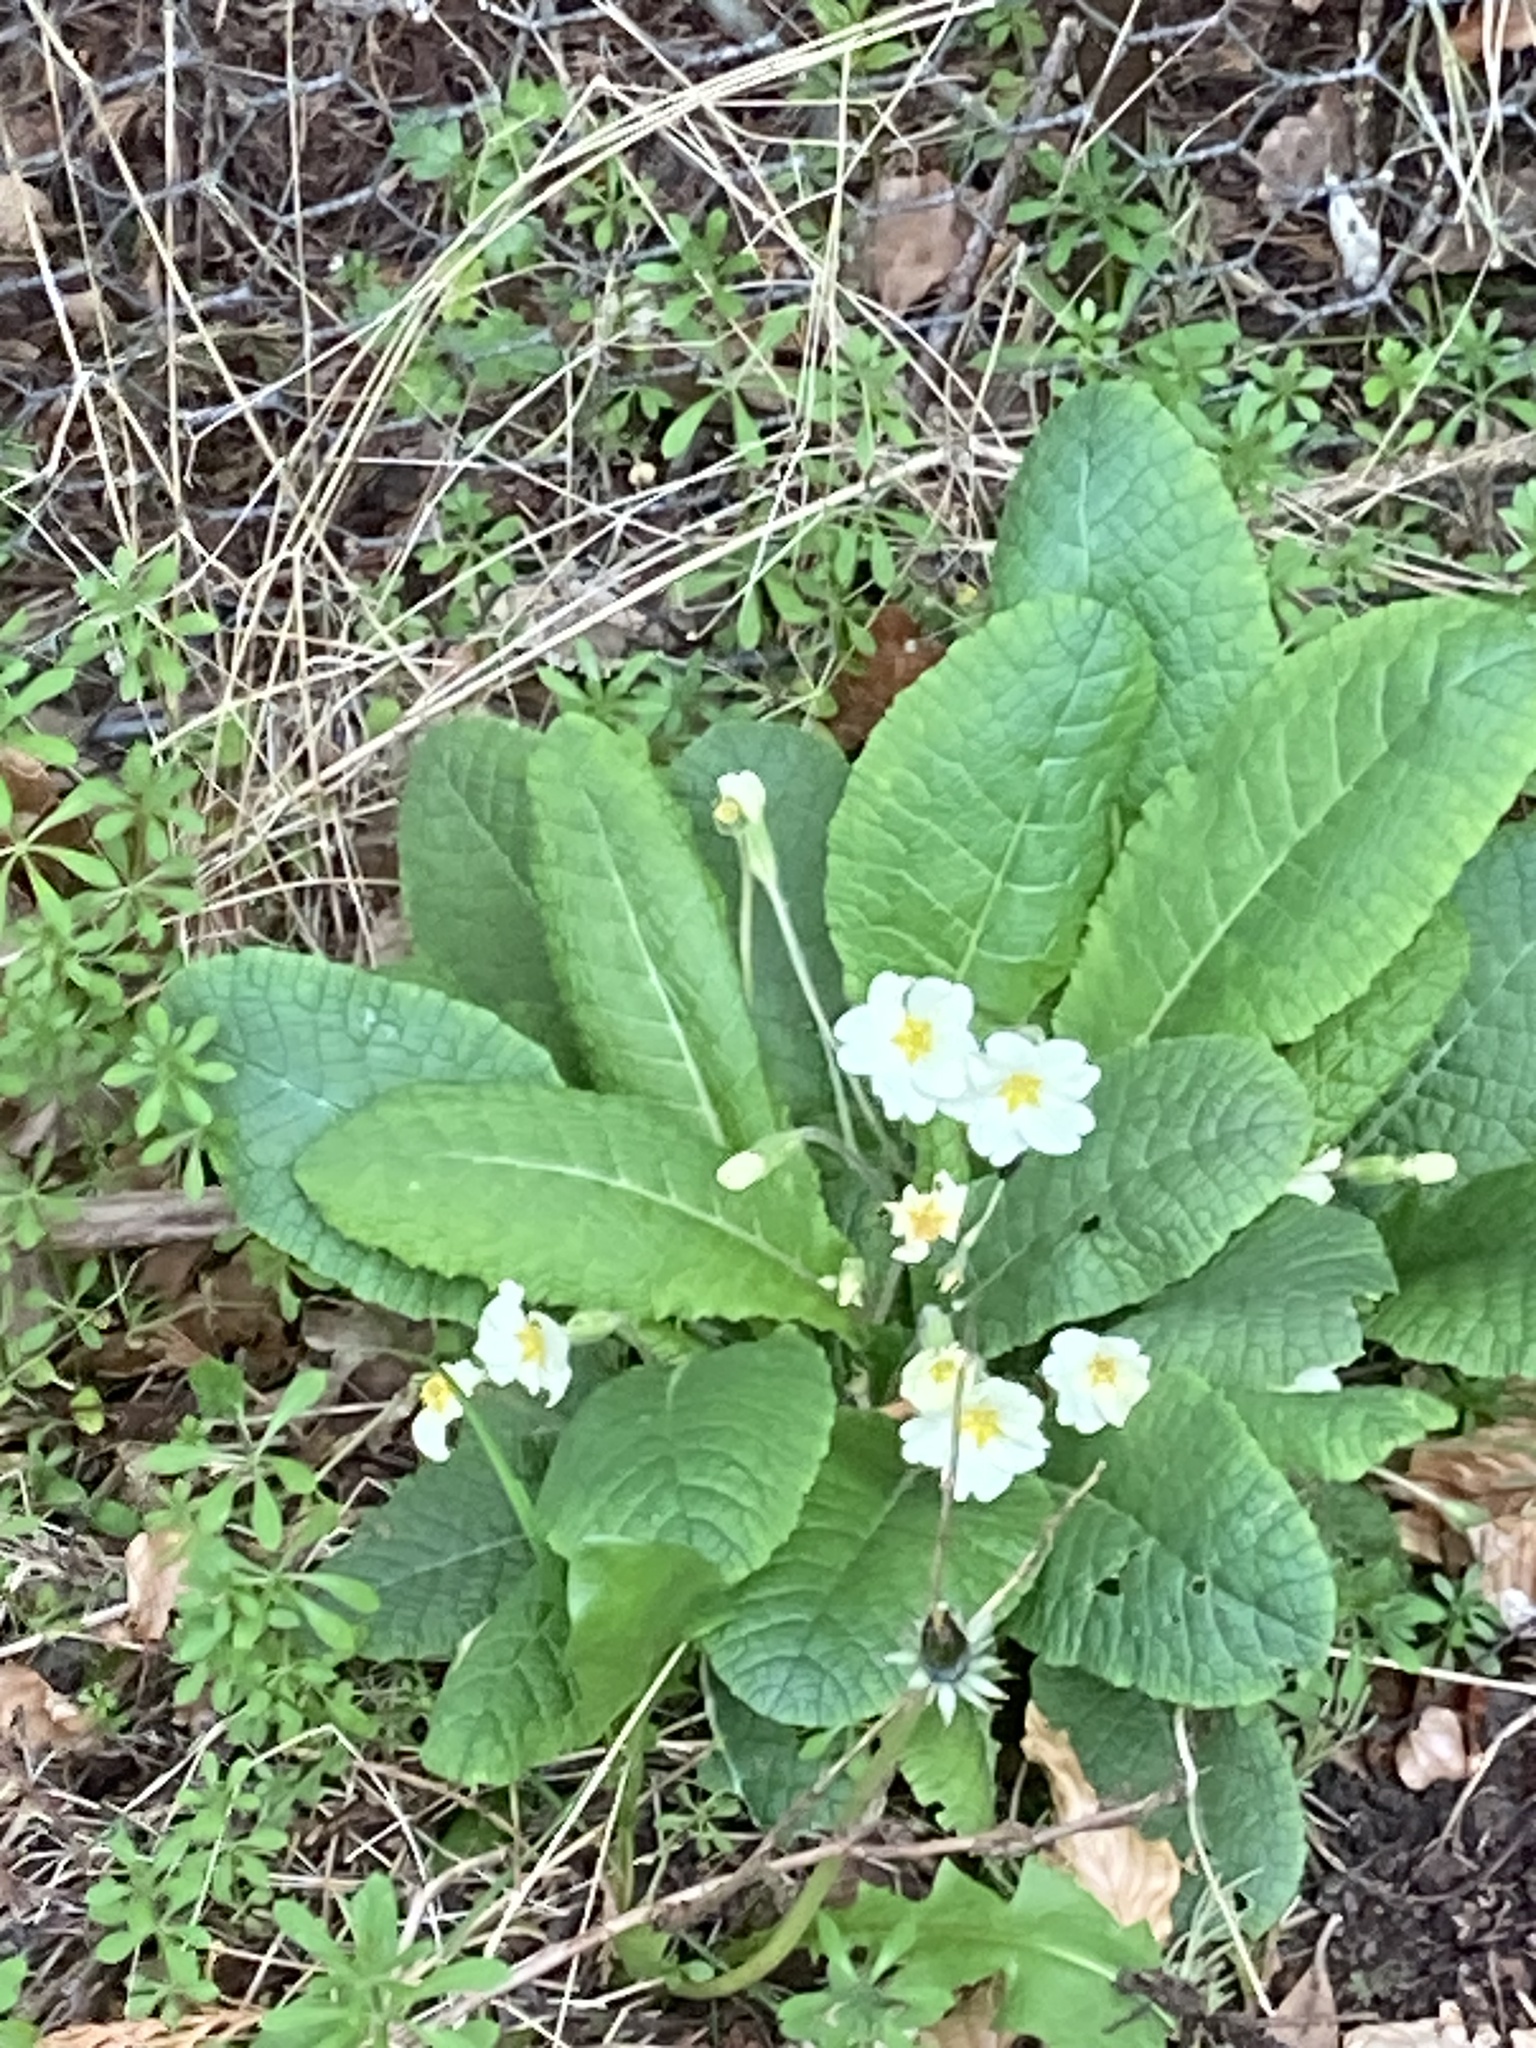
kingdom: Plantae
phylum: Tracheophyta
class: Magnoliopsida
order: Ericales
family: Primulaceae
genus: Primula
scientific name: Primula vulgaris
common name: Primrose
